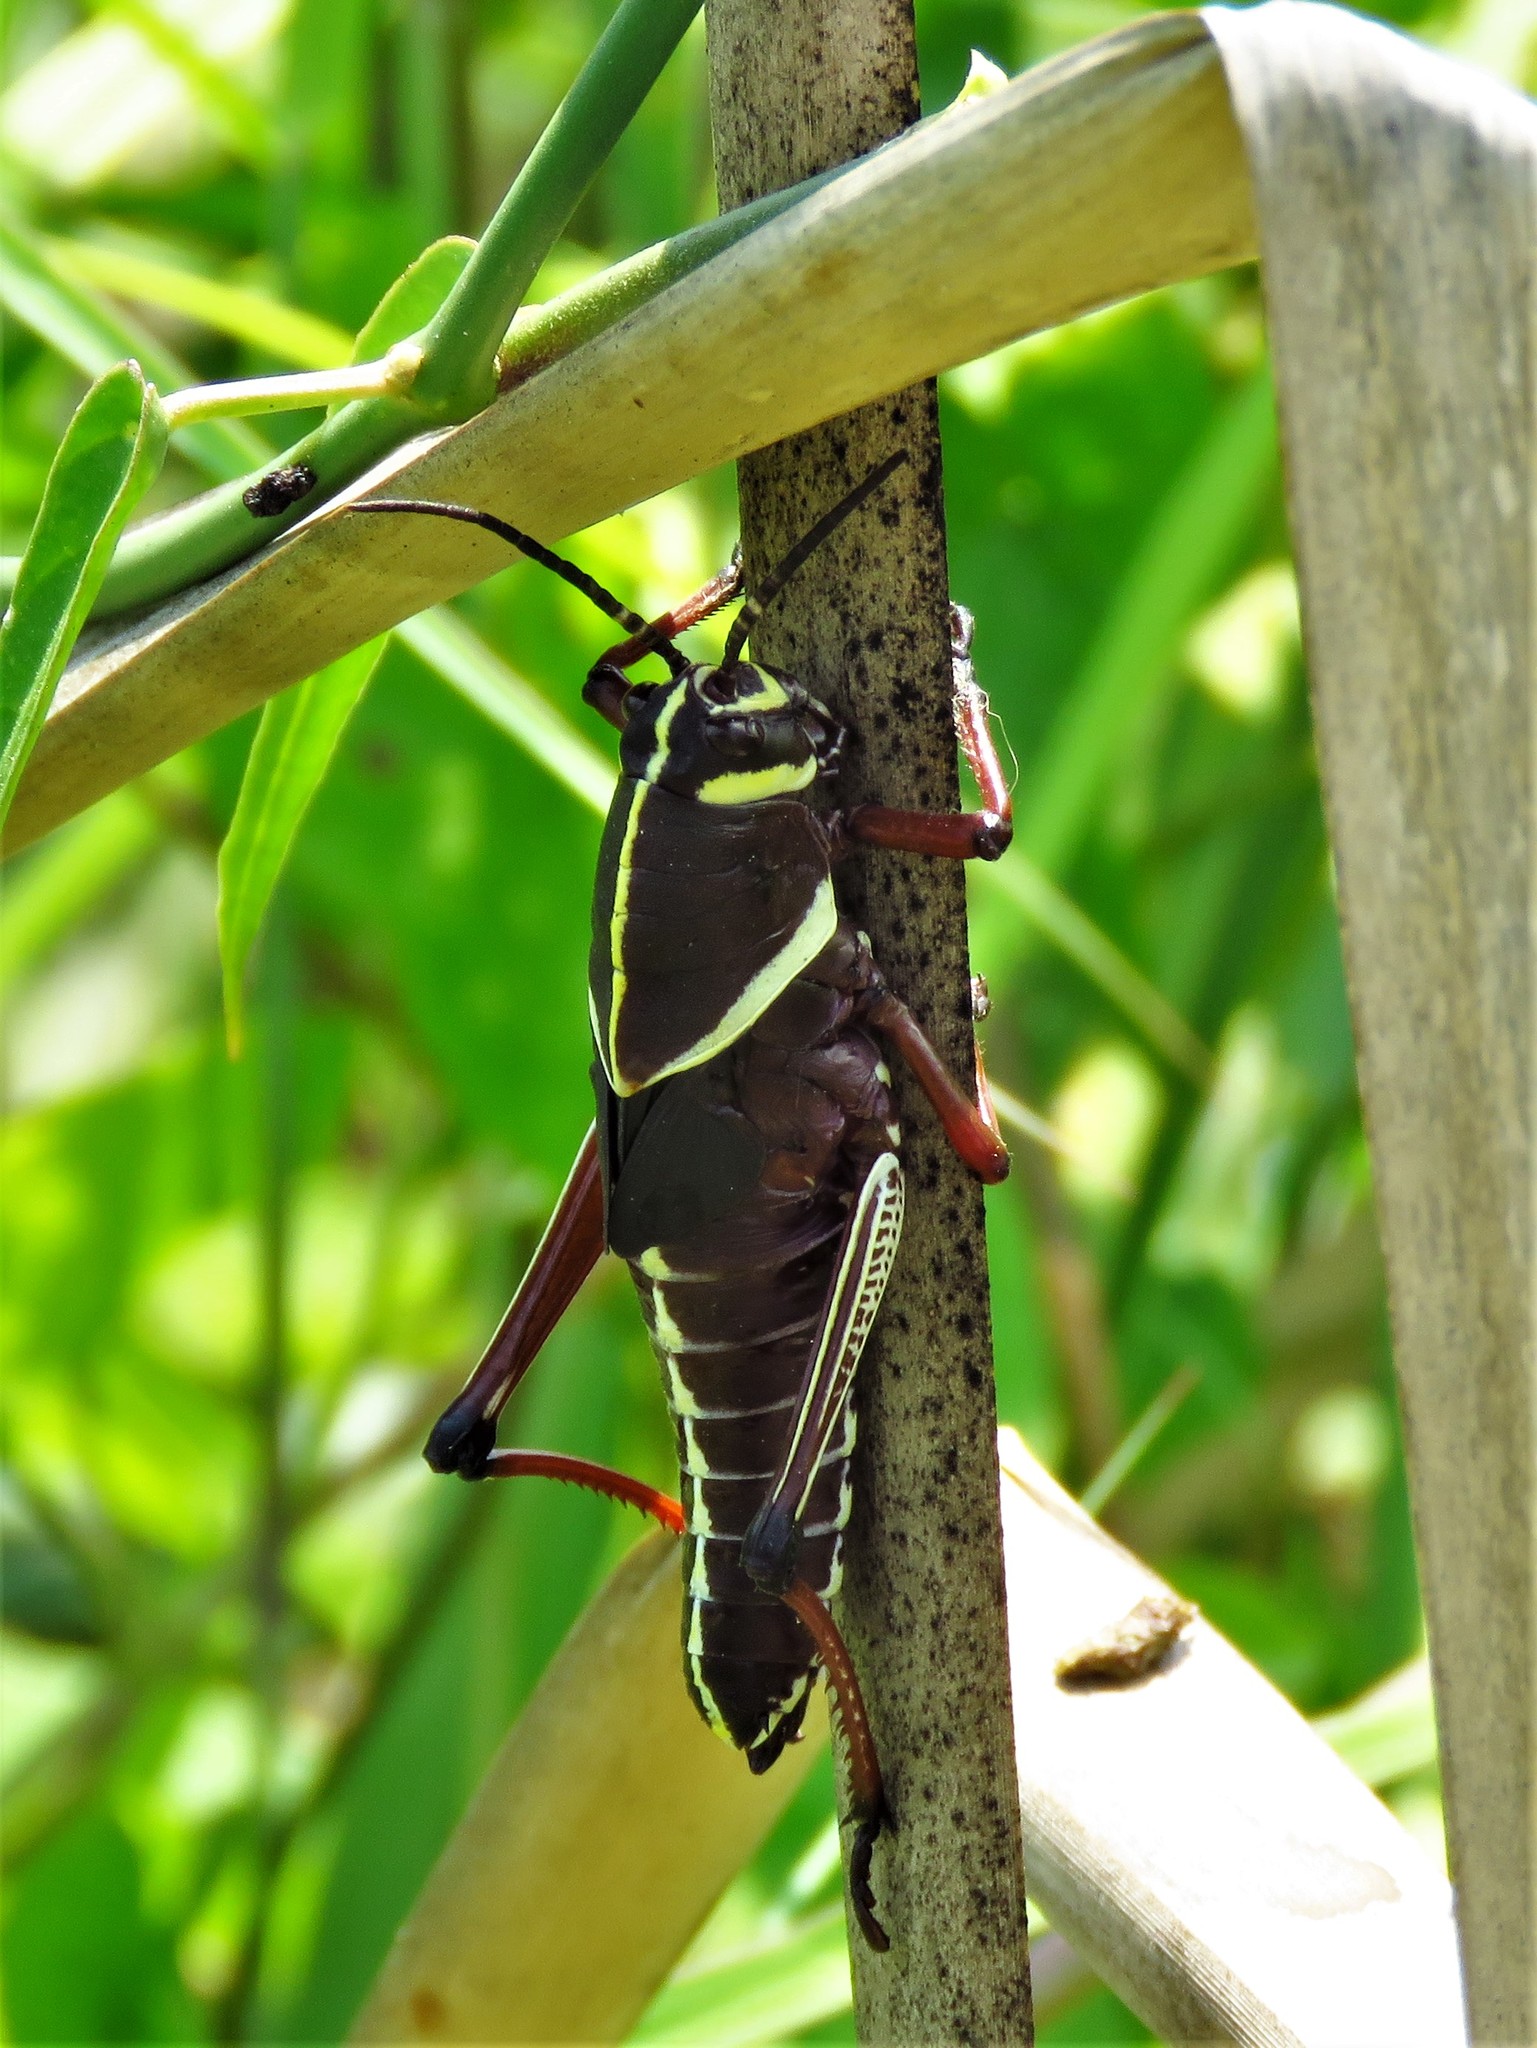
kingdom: Animalia
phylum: Arthropoda
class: Insecta
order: Orthoptera
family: Romaleidae
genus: Romalea
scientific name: Romalea
